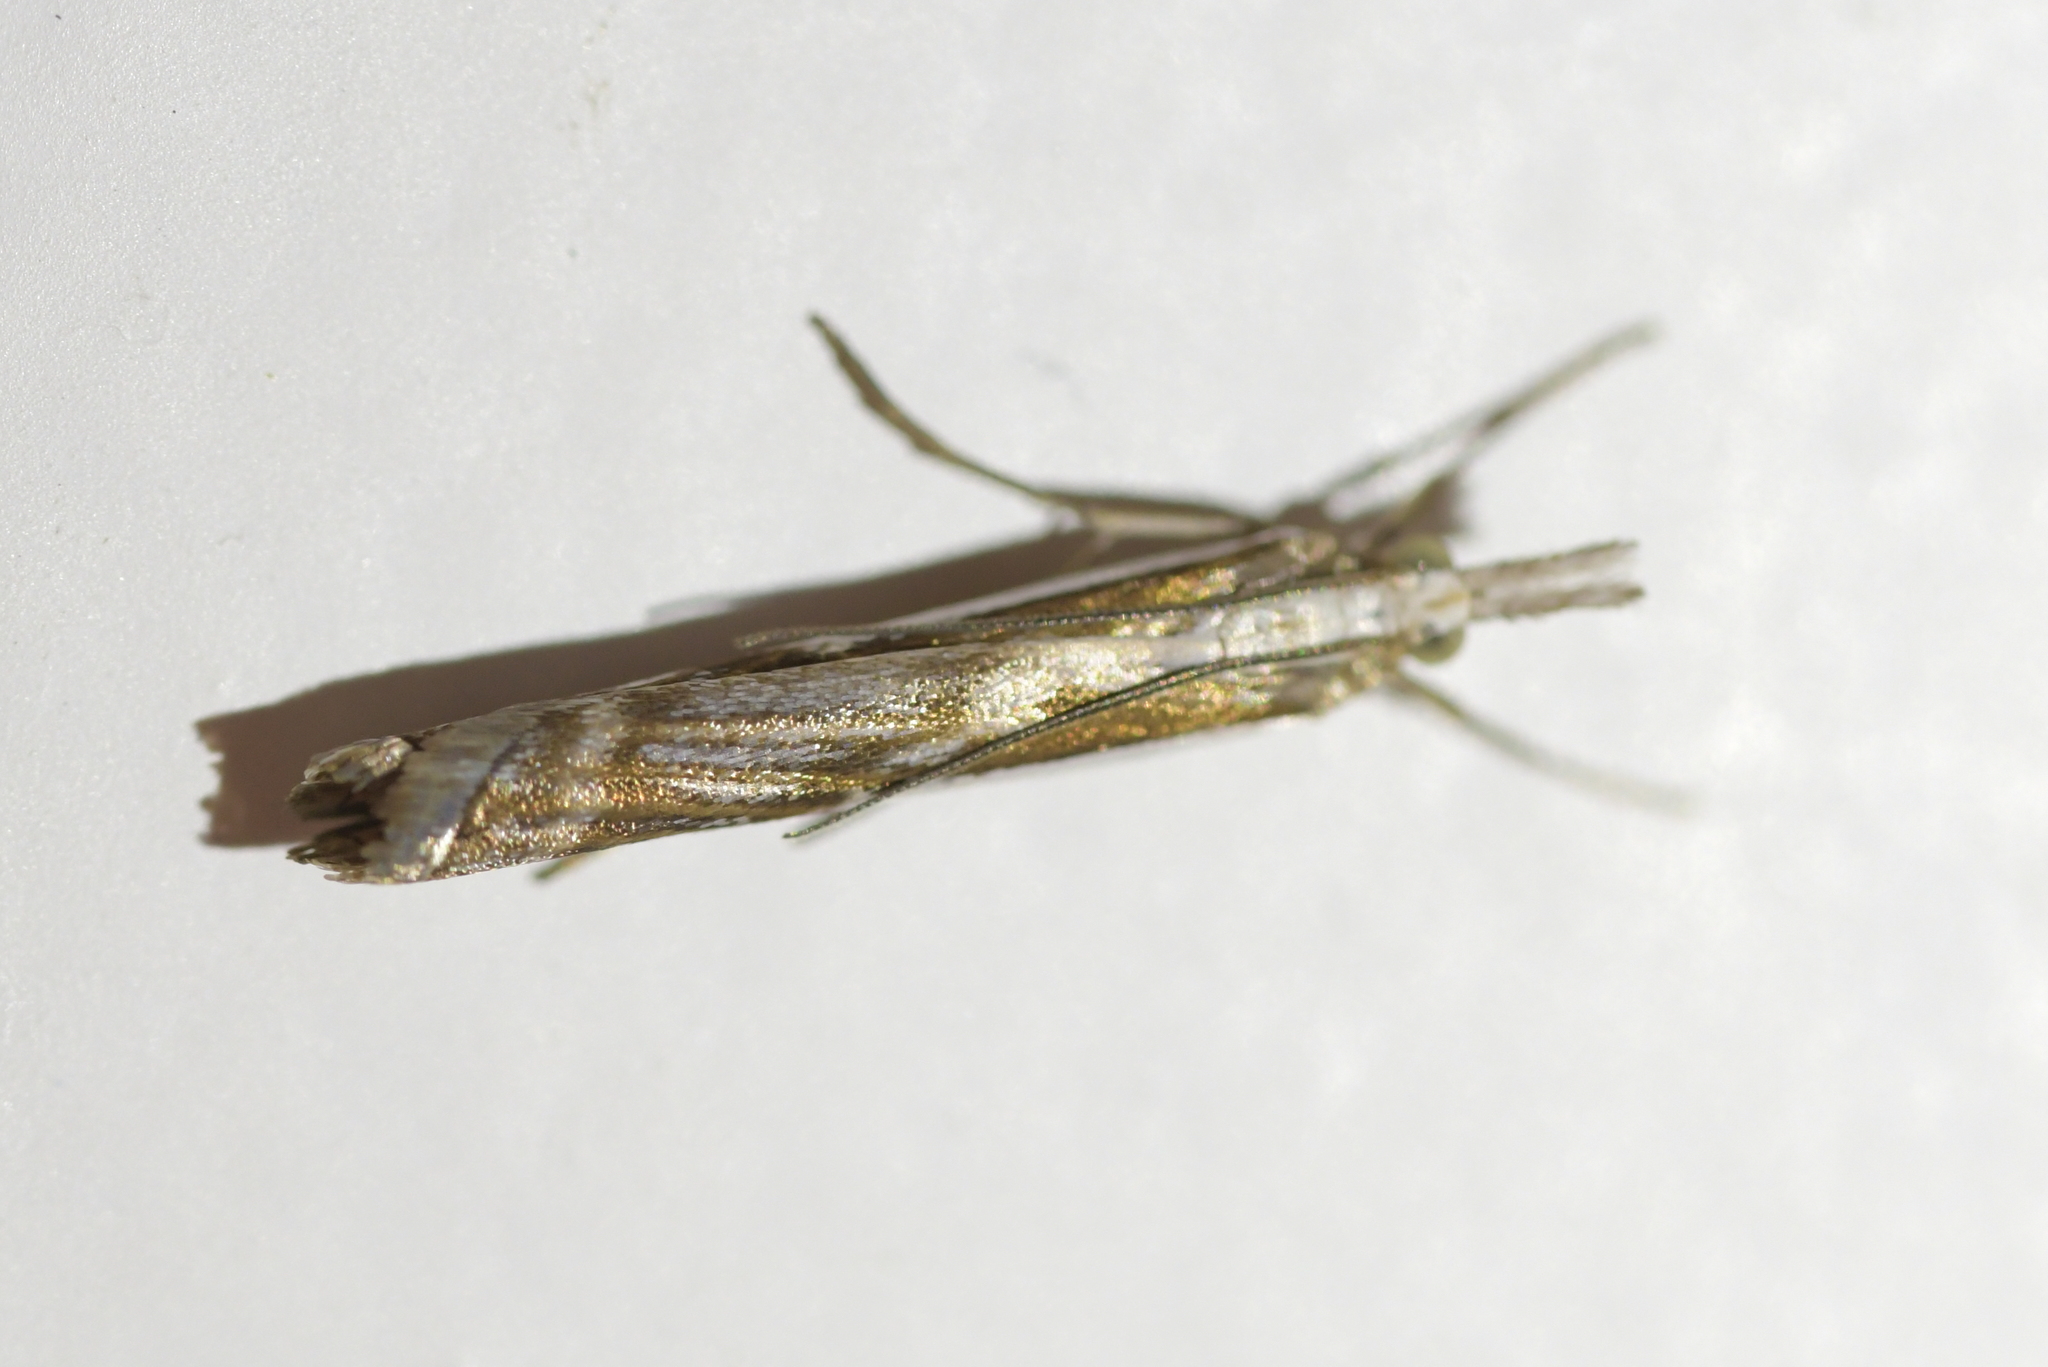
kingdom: Animalia
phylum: Arthropoda
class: Insecta
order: Lepidoptera
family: Crambidae
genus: Orocrambus
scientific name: Orocrambus vittellus
